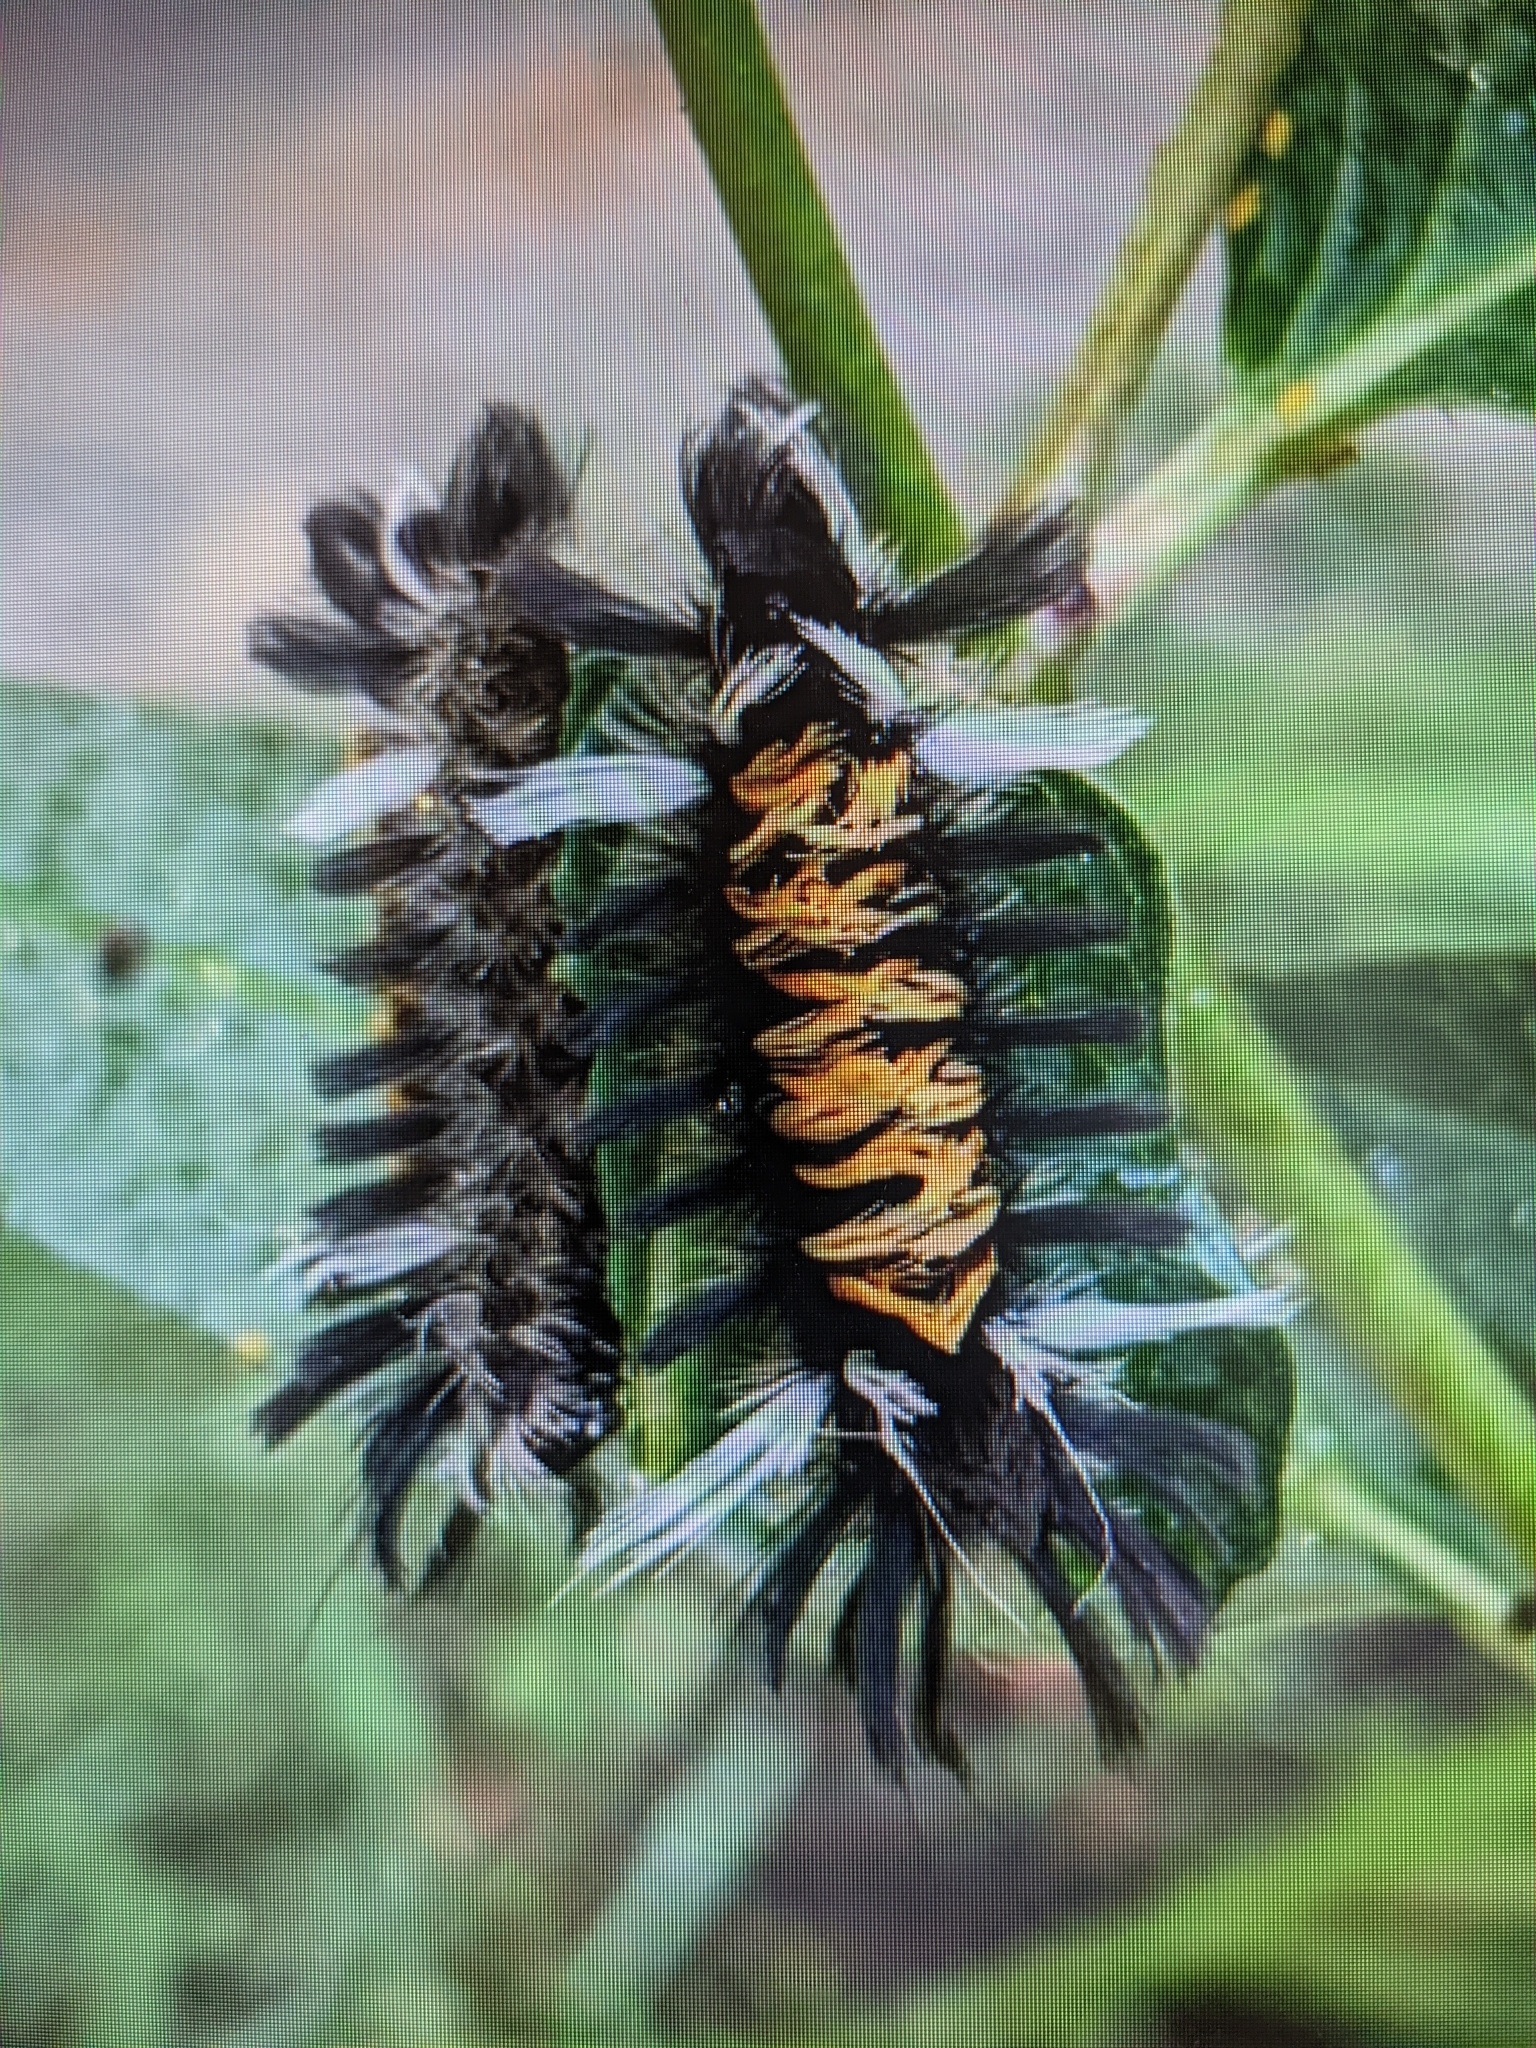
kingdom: Animalia
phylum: Arthropoda
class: Insecta
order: Lepidoptera
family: Erebidae
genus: Euchaetes
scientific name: Euchaetes egle
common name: Milkweed tussock moth
